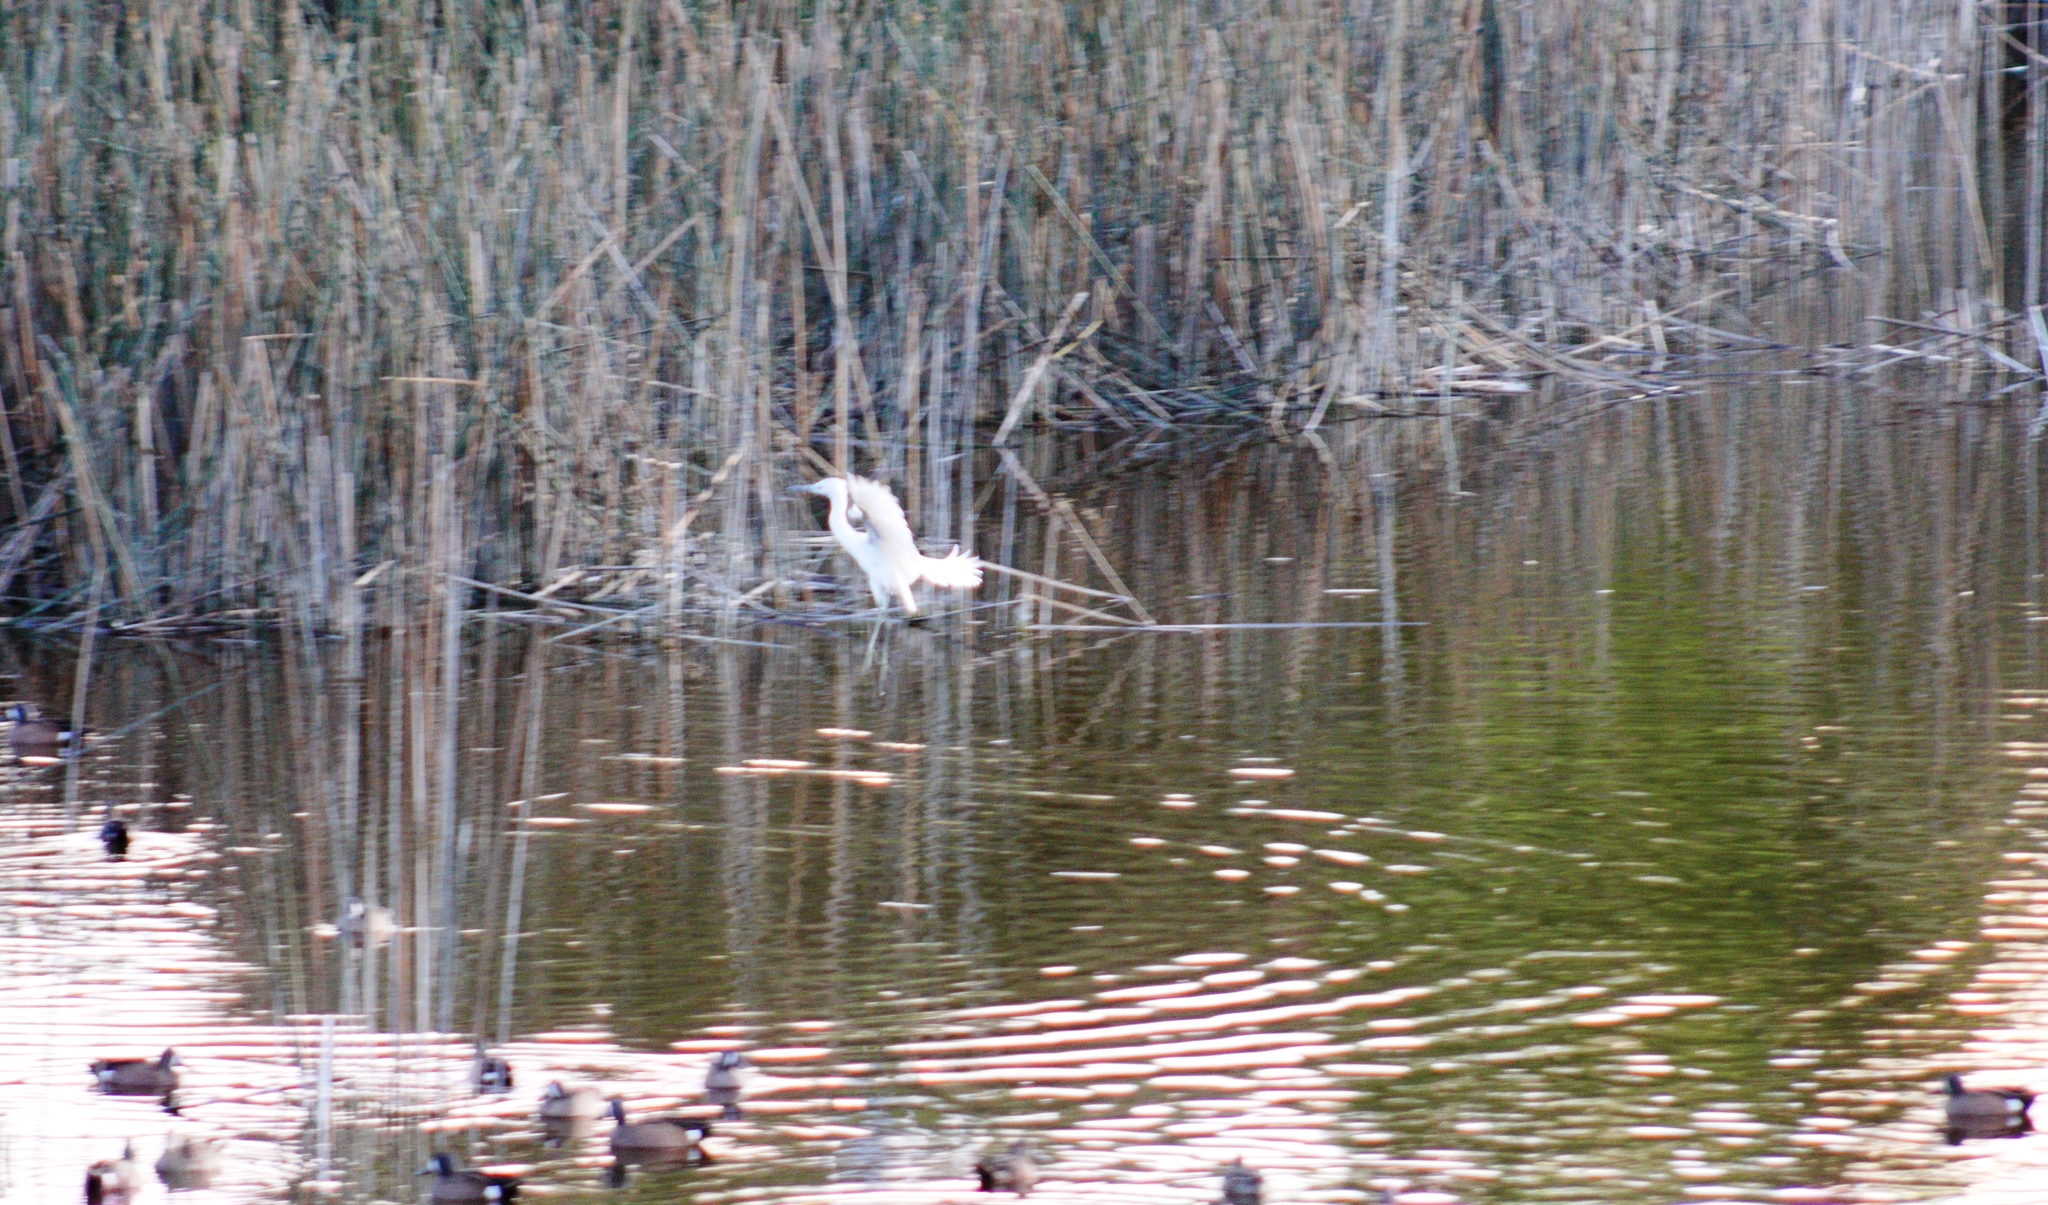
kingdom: Animalia
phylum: Chordata
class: Aves
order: Pelecaniformes
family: Ardeidae
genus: Egretta
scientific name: Egretta caerulea
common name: Little blue heron
